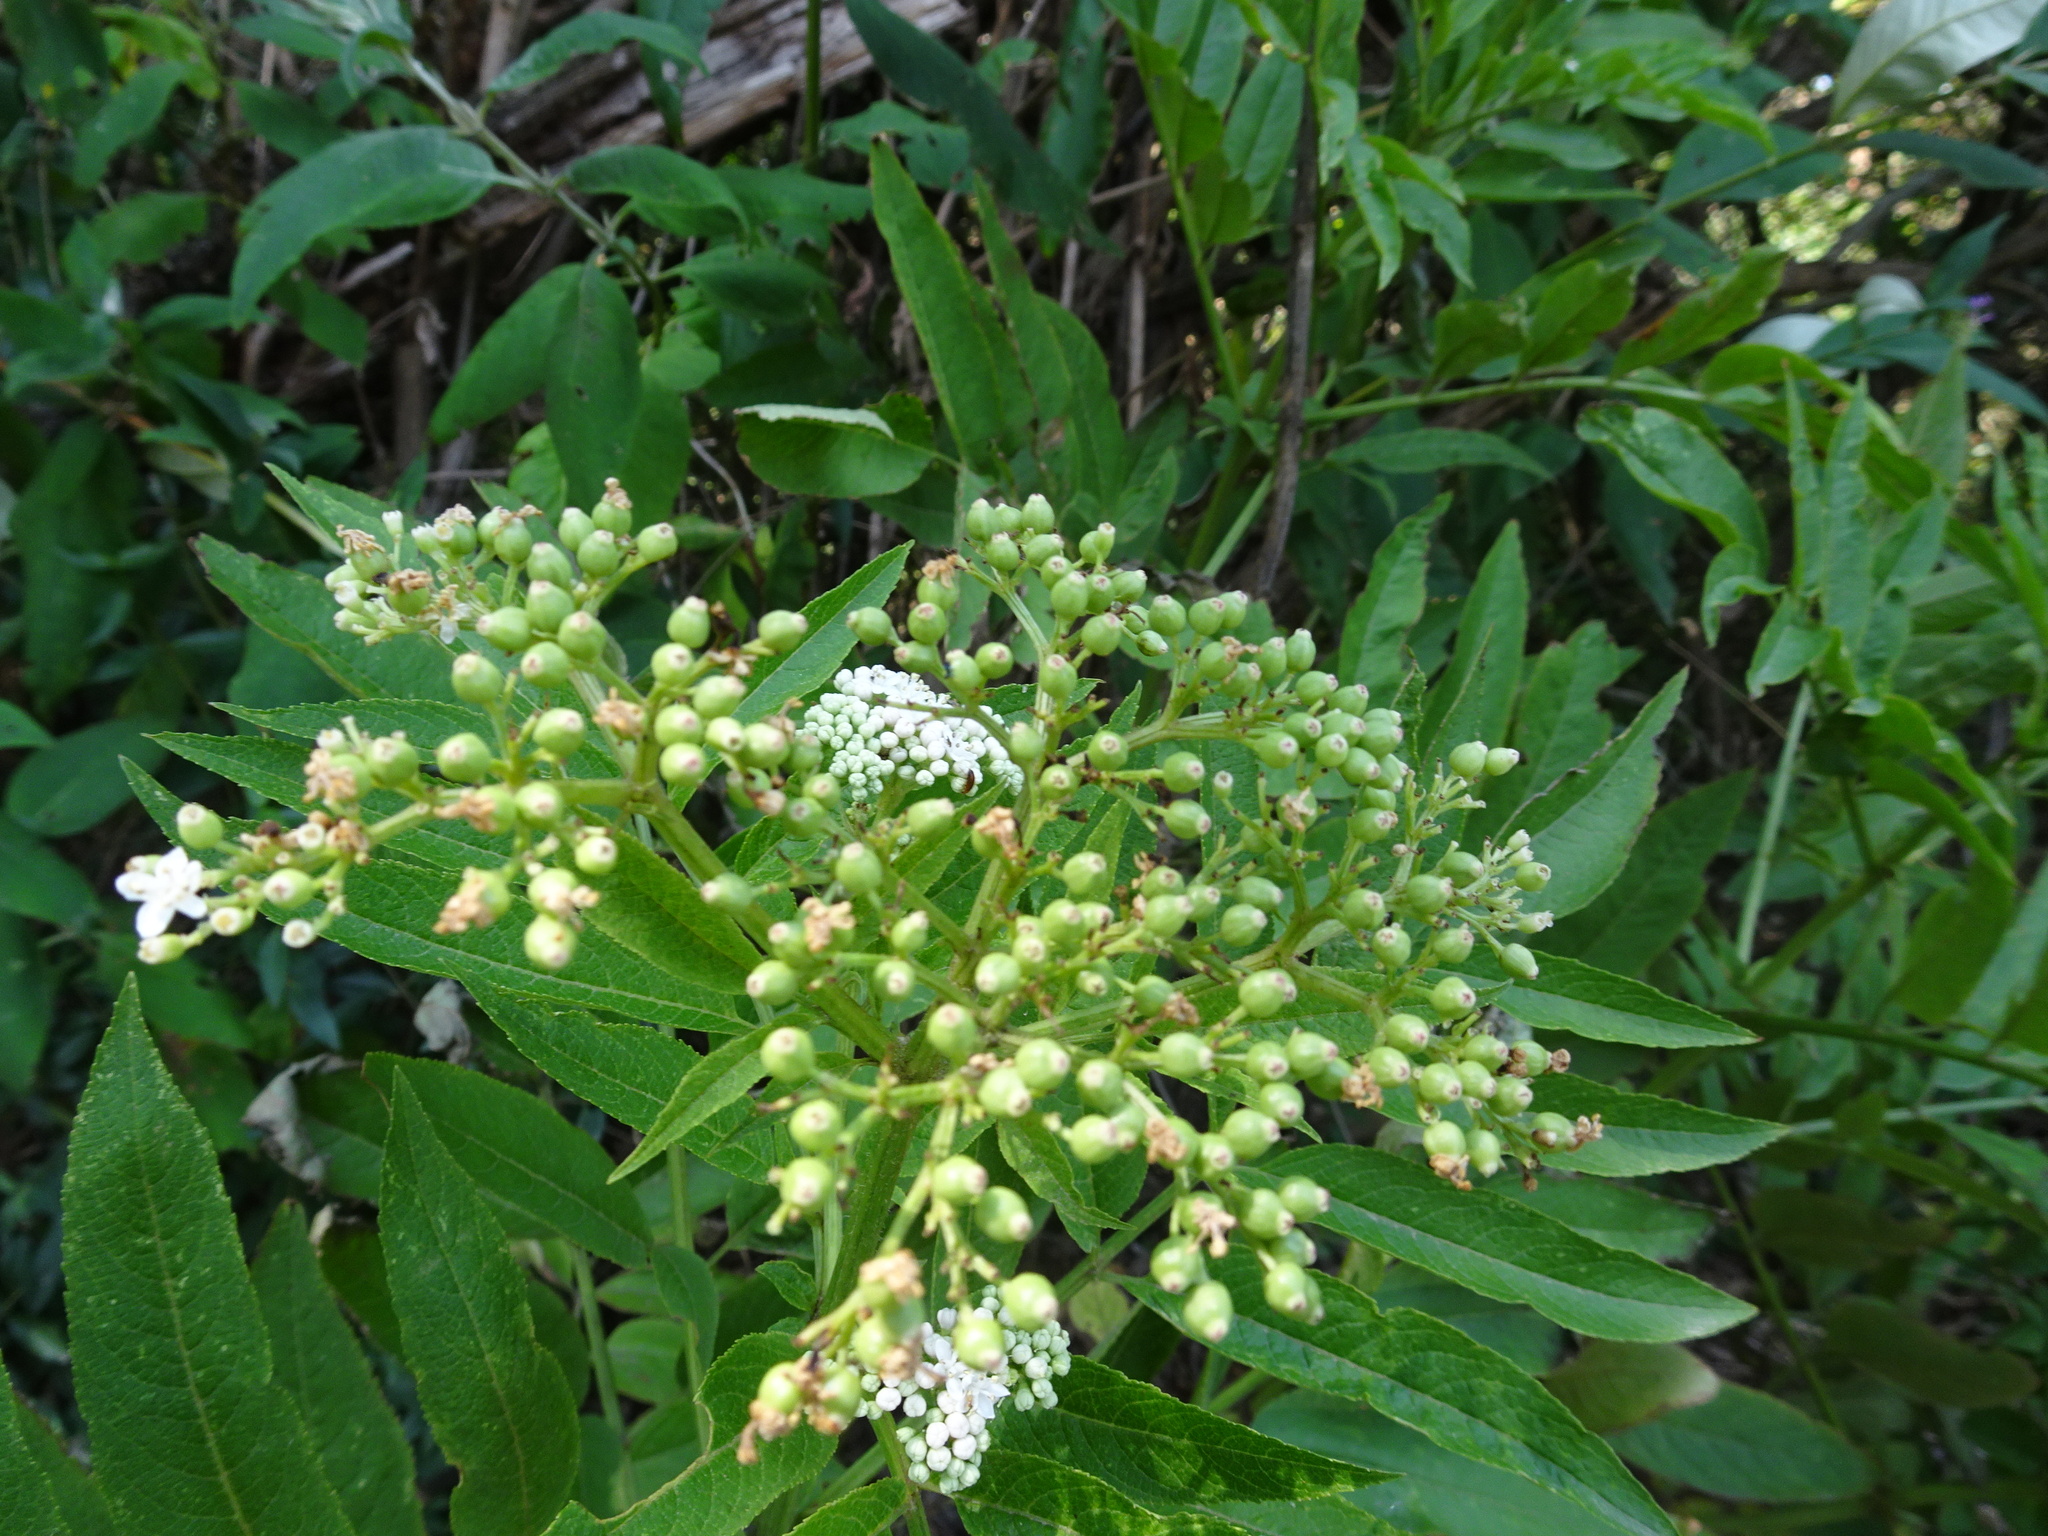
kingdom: Plantae
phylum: Tracheophyta
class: Magnoliopsida
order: Dipsacales
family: Viburnaceae
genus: Sambucus
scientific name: Sambucus ebulus
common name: Dwarf elder
